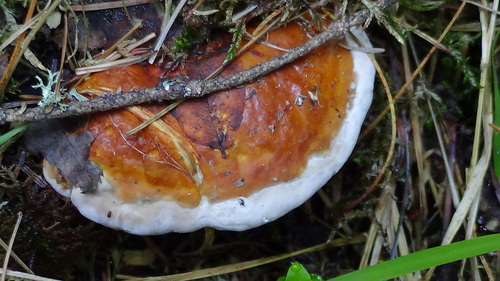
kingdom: Fungi
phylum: Basidiomycota
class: Agaricomycetes
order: Polyporales
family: Fomitopsidaceae
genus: Fomitopsis
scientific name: Fomitopsis pinicola
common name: Red-belted bracket
